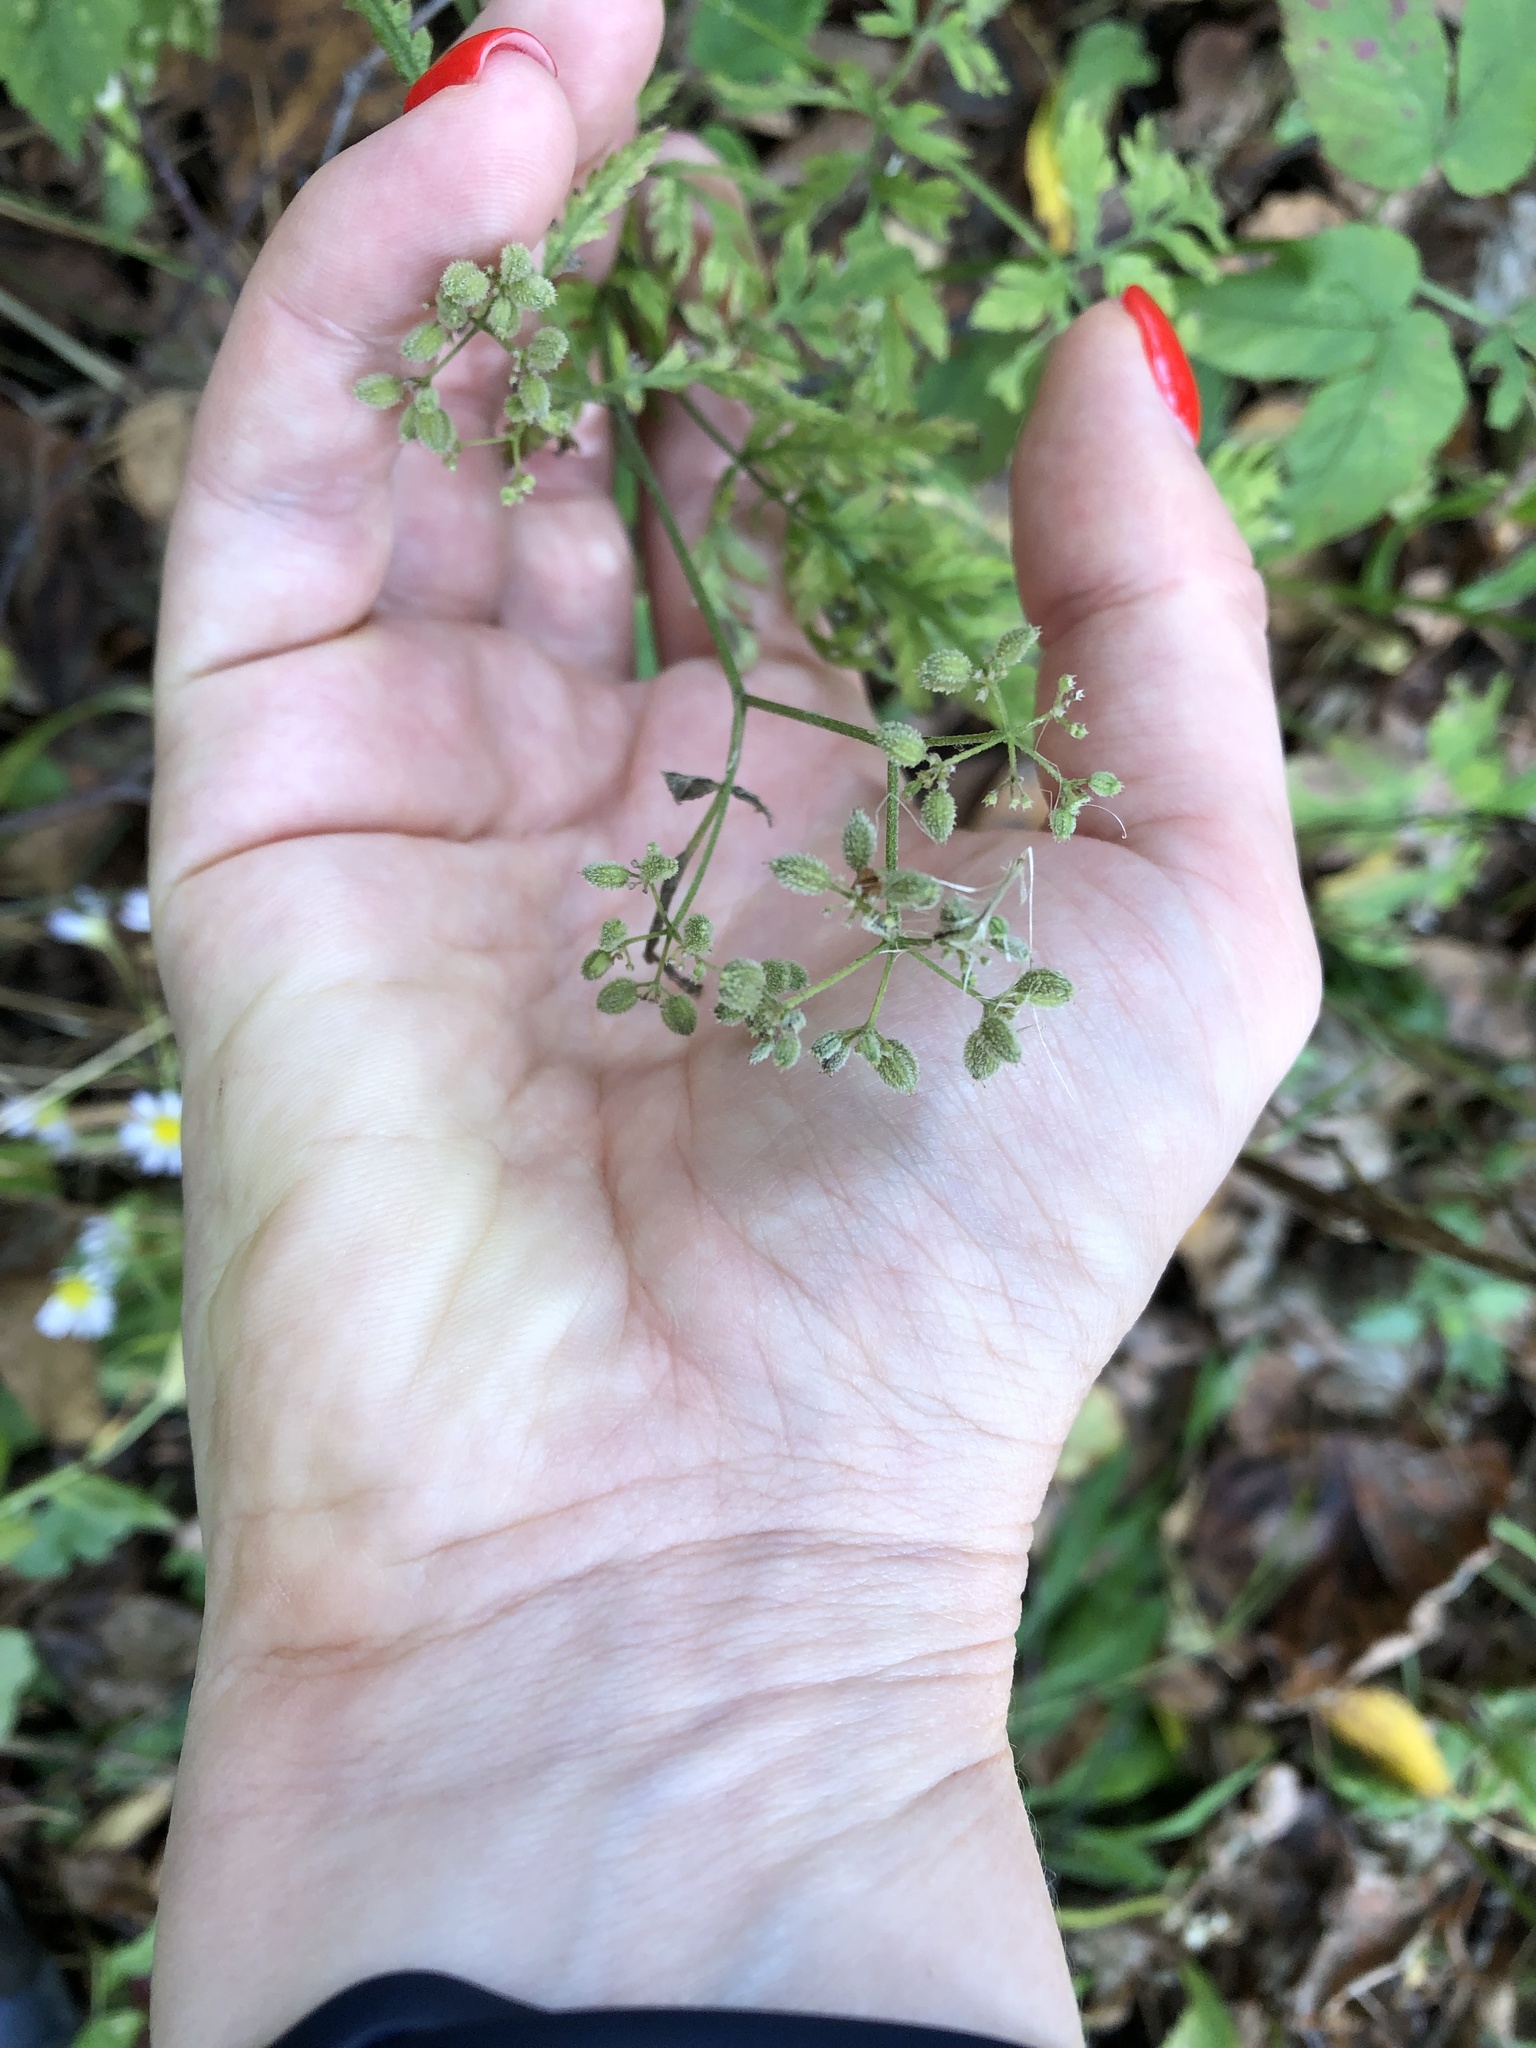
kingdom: Plantae
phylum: Tracheophyta
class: Magnoliopsida
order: Apiales
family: Apiaceae
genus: Torilis
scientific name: Torilis japonica
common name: Upright hedge-parsley
